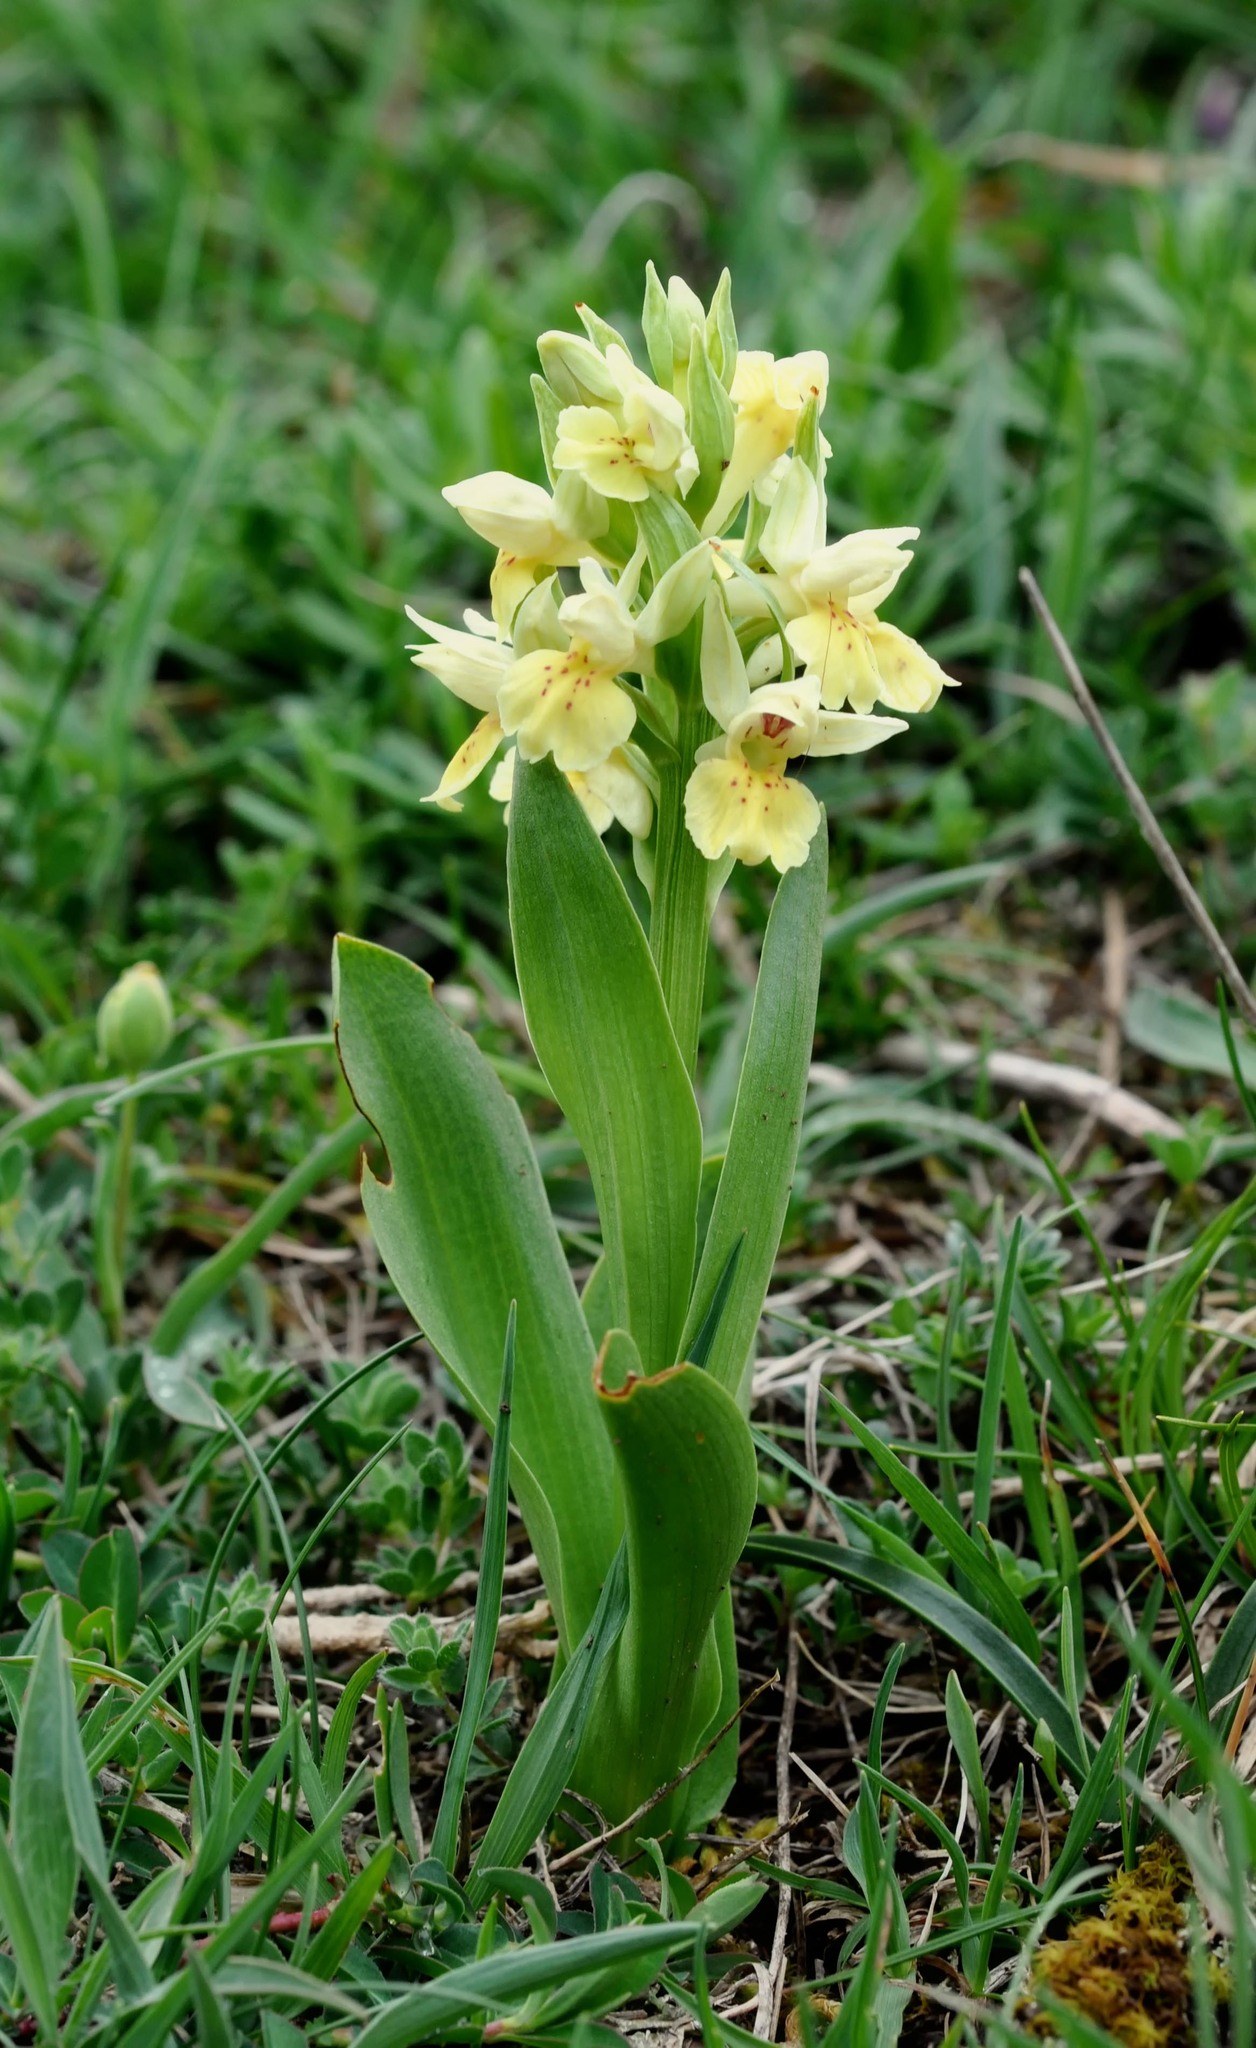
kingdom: Plantae
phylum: Tracheophyta
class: Liliopsida
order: Asparagales
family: Orchidaceae
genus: Dactylorhiza
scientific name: Dactylorhiza sambucina
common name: Elder-flowered orchid
